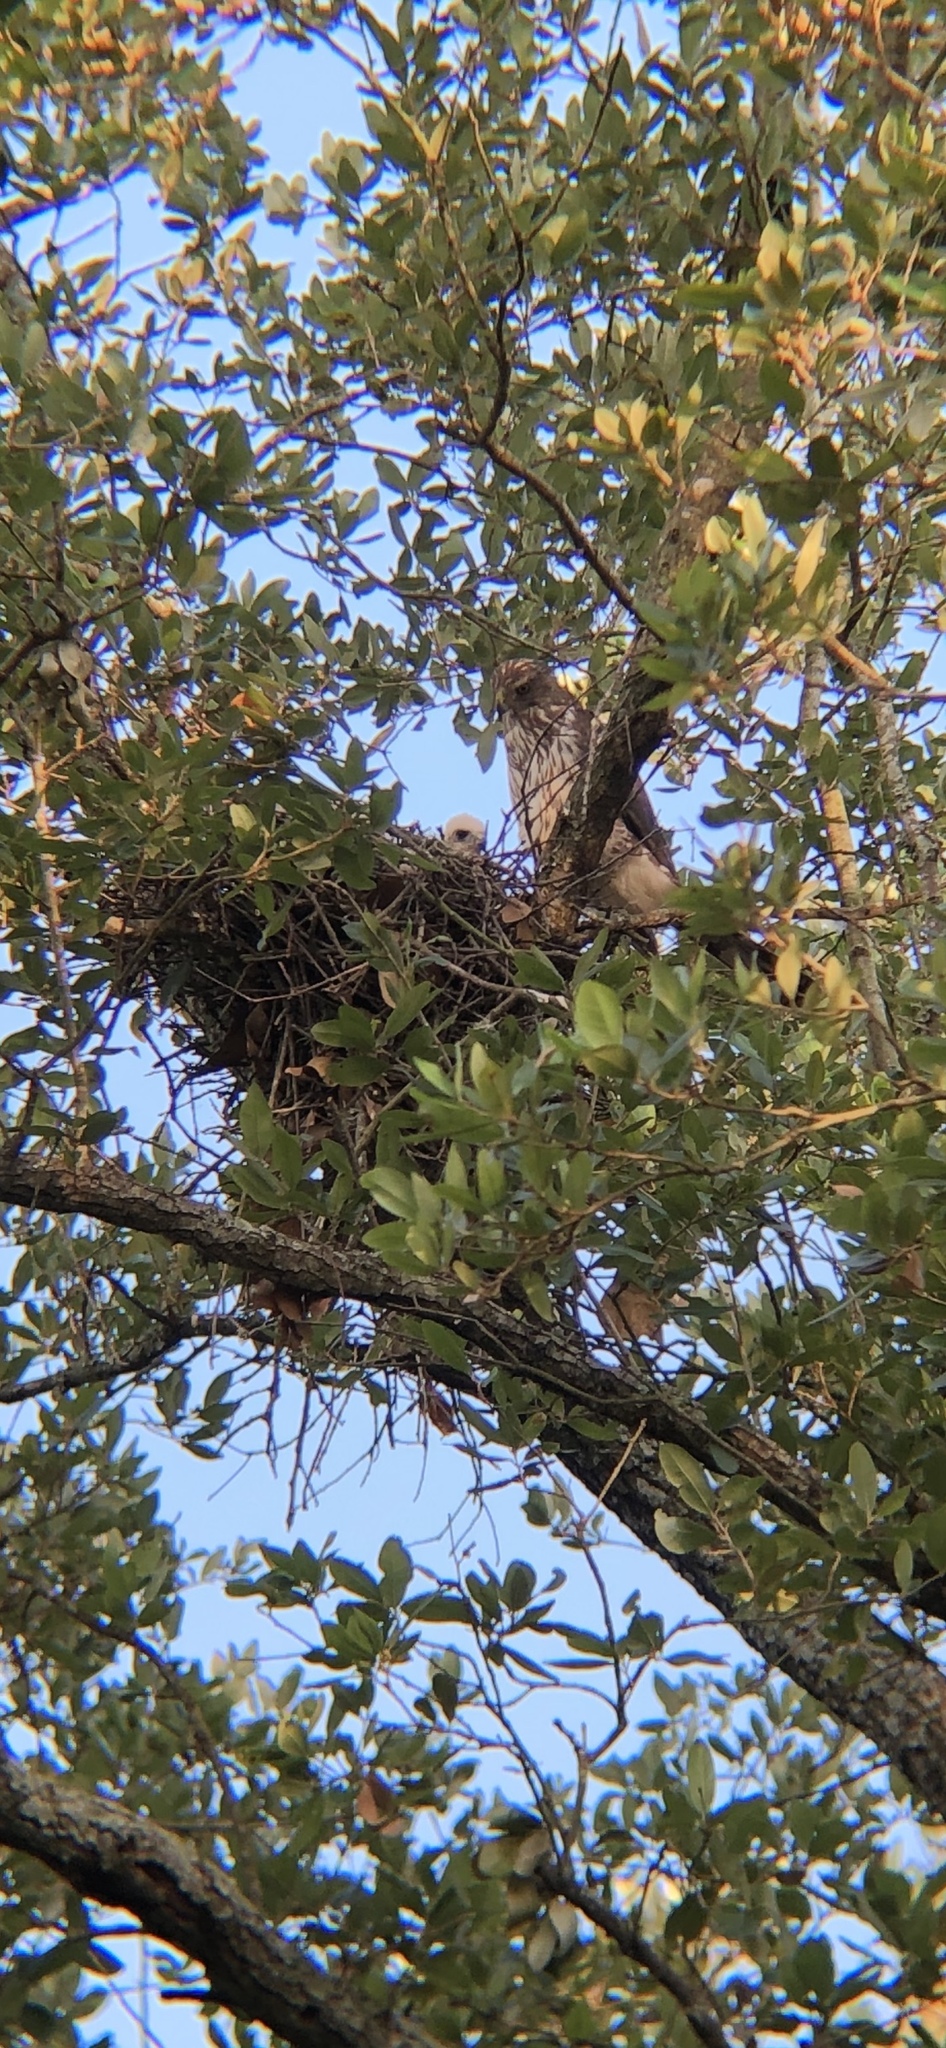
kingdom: Animalia
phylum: Chordata
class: Aves
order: Accipitriformes
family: Accipitridae
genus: Accipiter
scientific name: Accipiter cooperii
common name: Cooper's hawk
